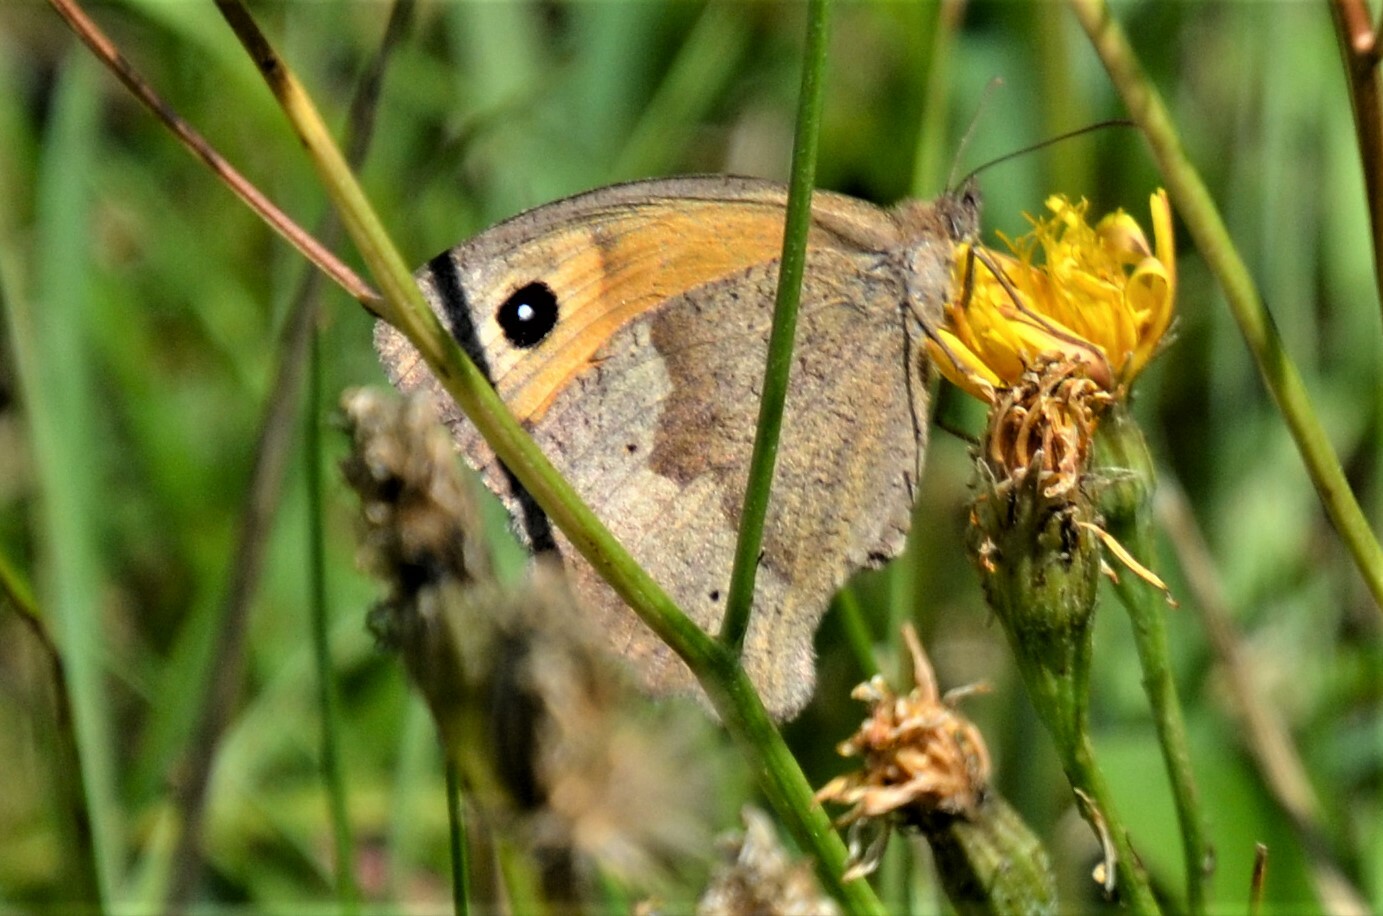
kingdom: Animalia
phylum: Arthropoda
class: Insecta
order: Lepidoptera
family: Nymphalidae
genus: Maniola
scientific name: Maniola jurtina
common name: Meadow brown
